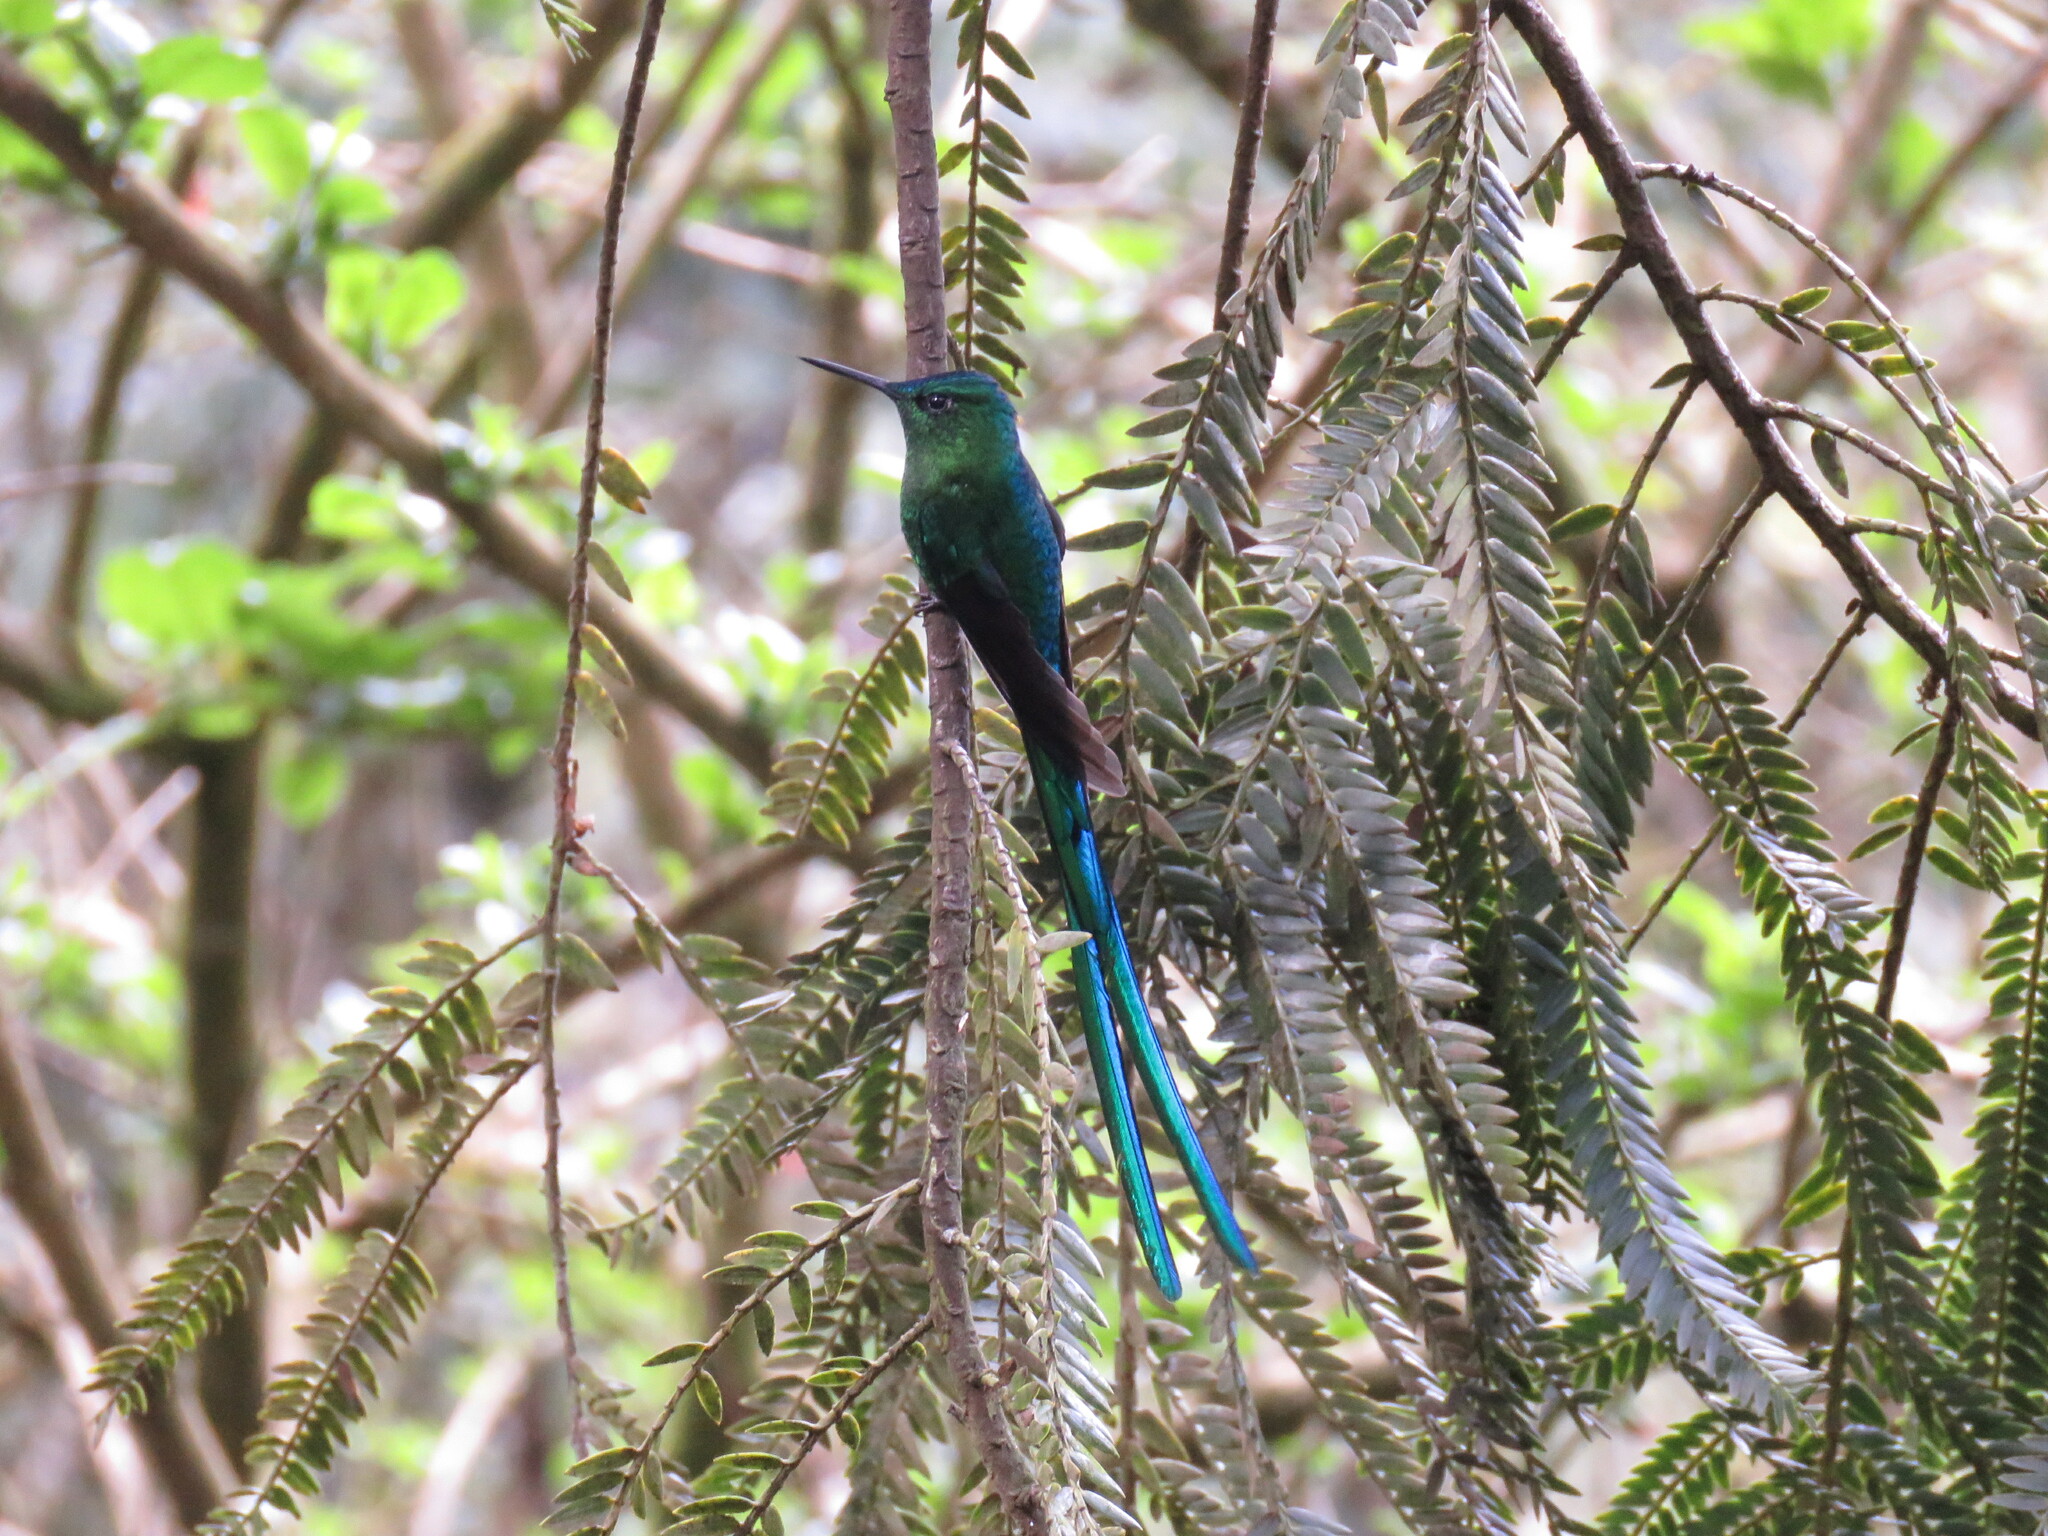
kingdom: Animalia
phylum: Chordata
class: Aves
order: Apodiformes
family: Trochilidae
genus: Aglaiocercus
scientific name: Aglaiocercus kingii
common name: Long-tailed sylph
